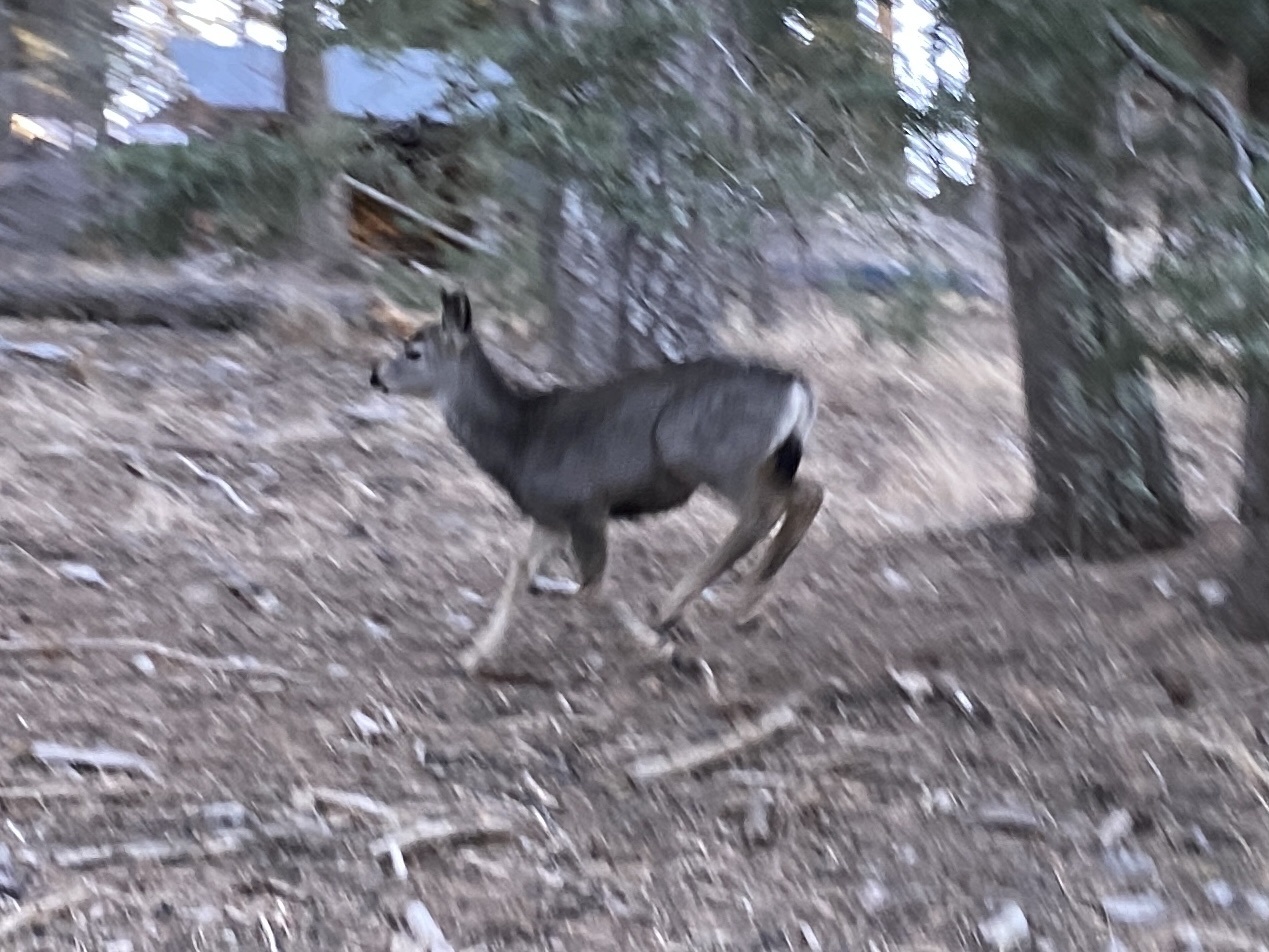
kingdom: Animalia
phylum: Chordata
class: Mammalia
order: Artiodactyla
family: Cervidae
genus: Odocoileus
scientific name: Odocoileus hemionus
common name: Mule deer
